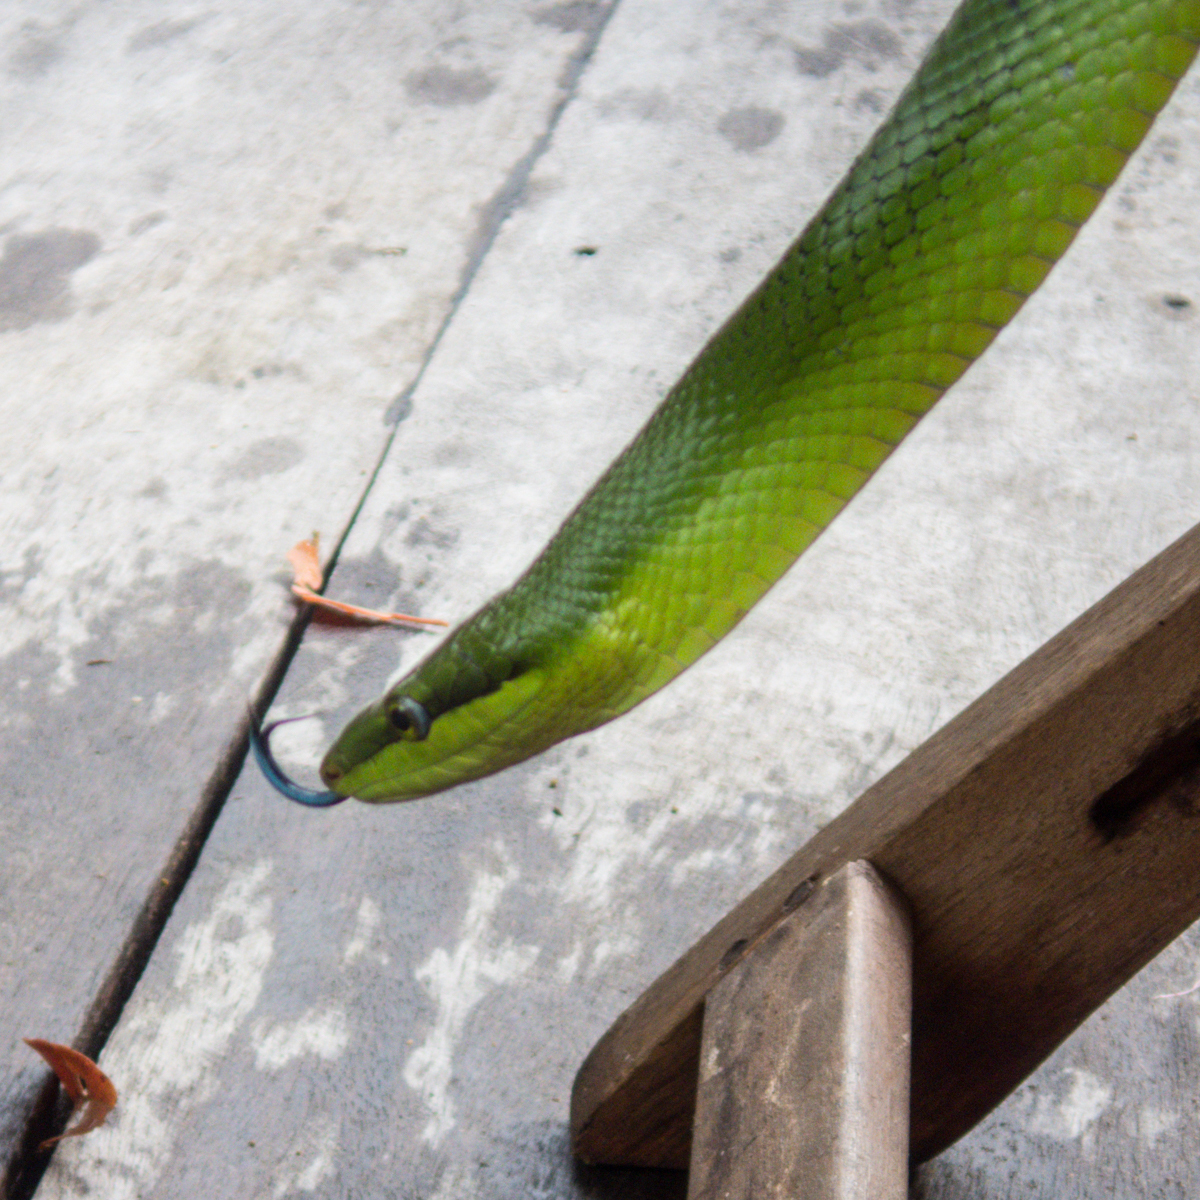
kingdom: Animalia
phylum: Chordata
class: Squamata
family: Colubridae
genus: Gonyosoma
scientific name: Gonyosoma oxycephalum
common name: Red-tailed racer
